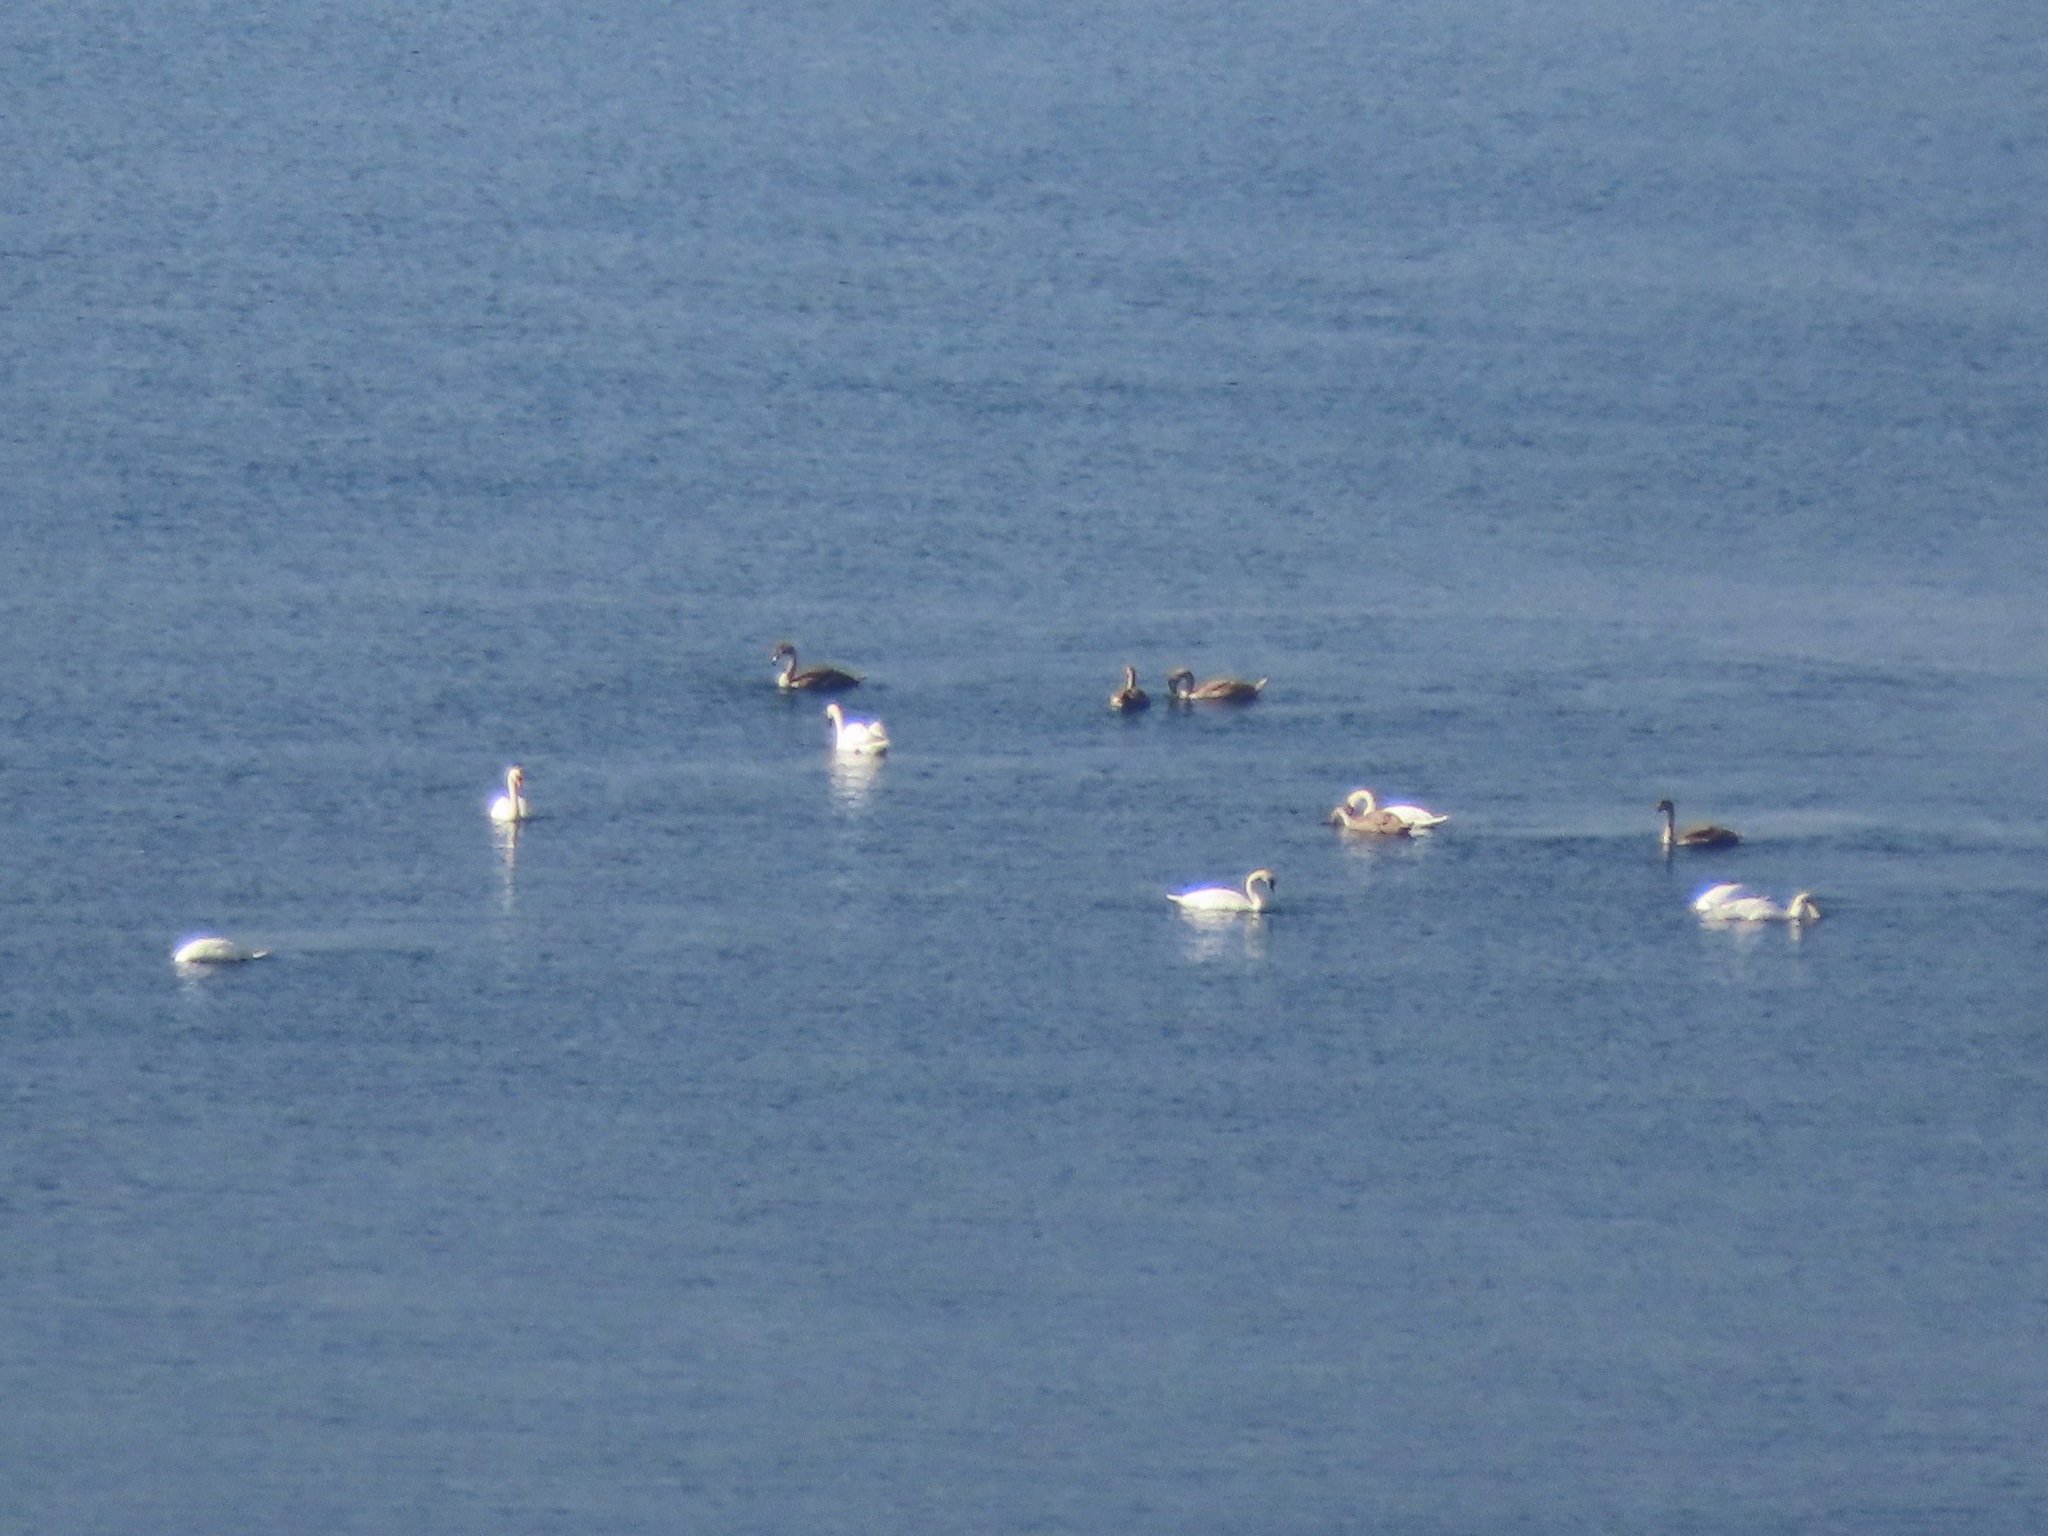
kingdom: Animalia
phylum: Chordata
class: Aves
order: Anseriformes
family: Anatidae
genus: Cygnus
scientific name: Cygnus buccinator
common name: Trumpeter swan
